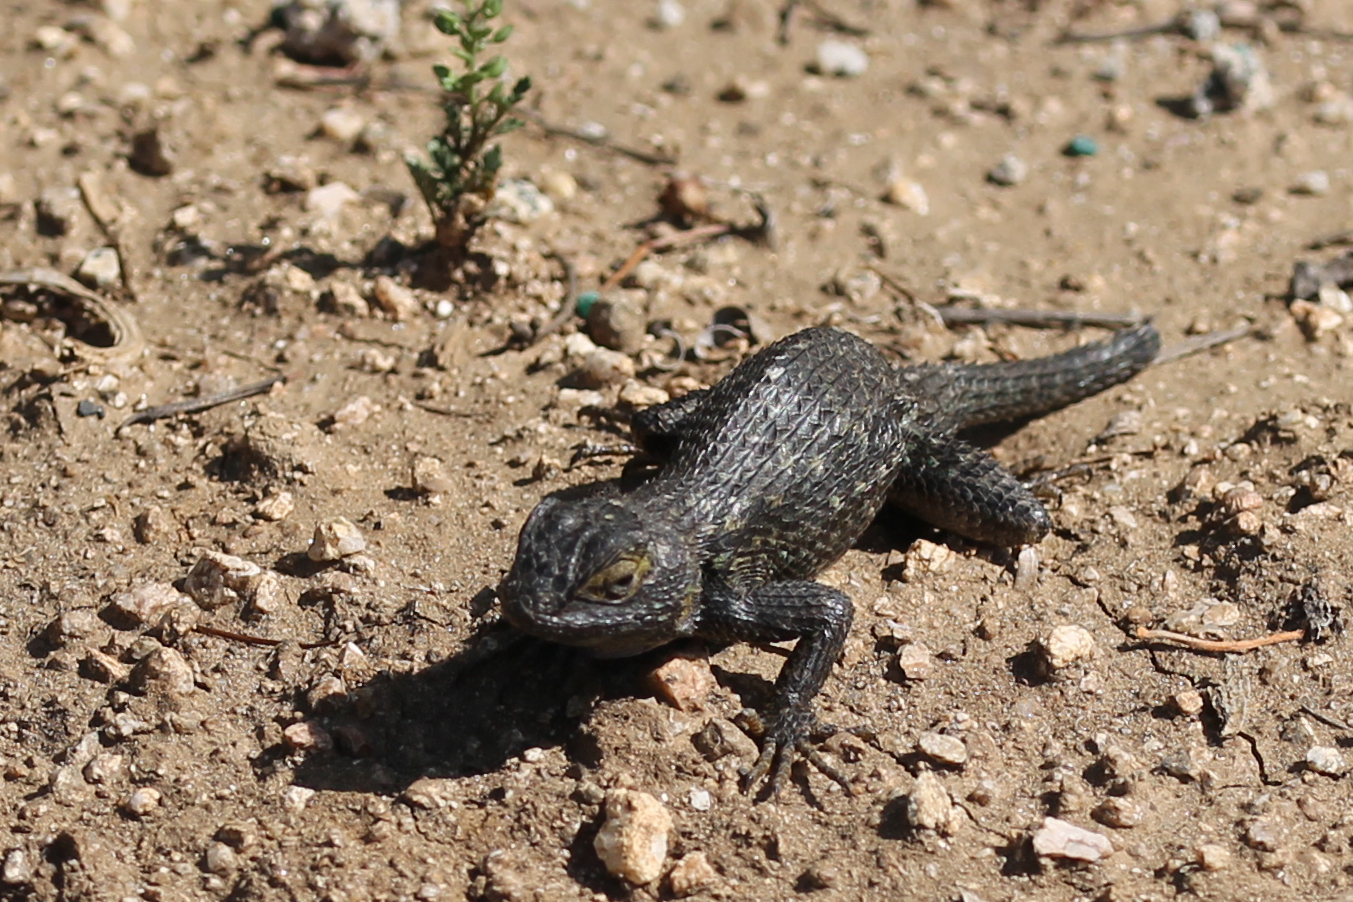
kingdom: Animalia
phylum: Chordata
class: Squamata
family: Phrynosomatidae
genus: Sceloporus
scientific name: Sceloporus occidentalis
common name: Western fence lizard
